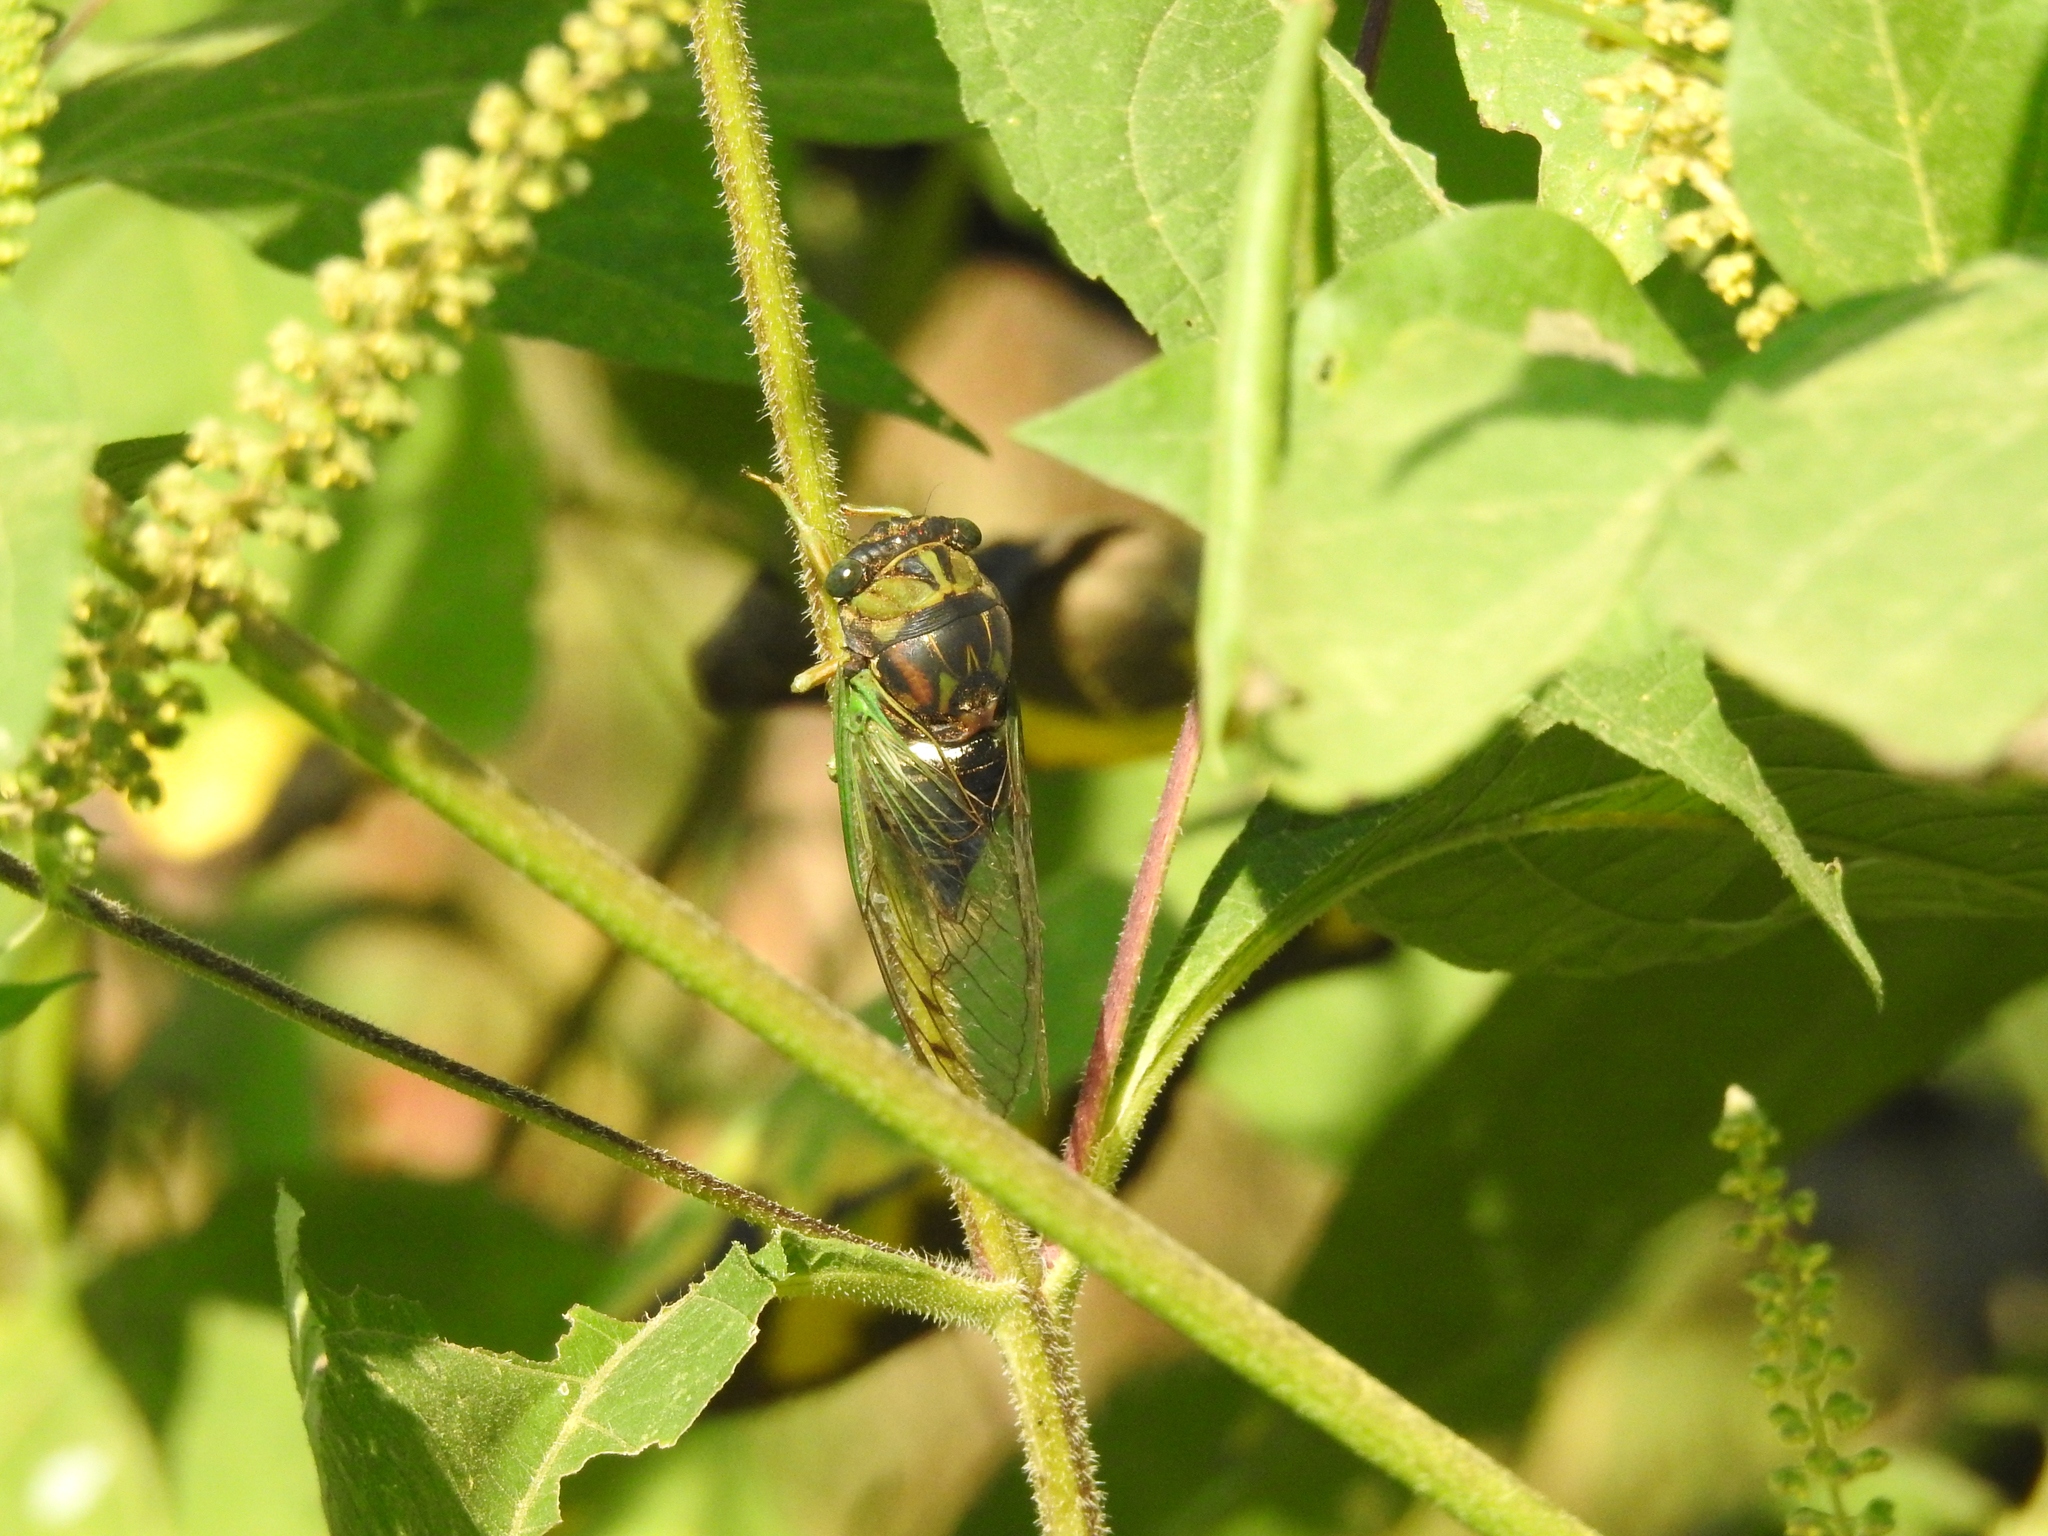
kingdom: Animalia
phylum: Arthropoda
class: Insecta
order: Hemiptera
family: Cicadidae
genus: Neotibicen
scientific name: Neotibicen tibicen
